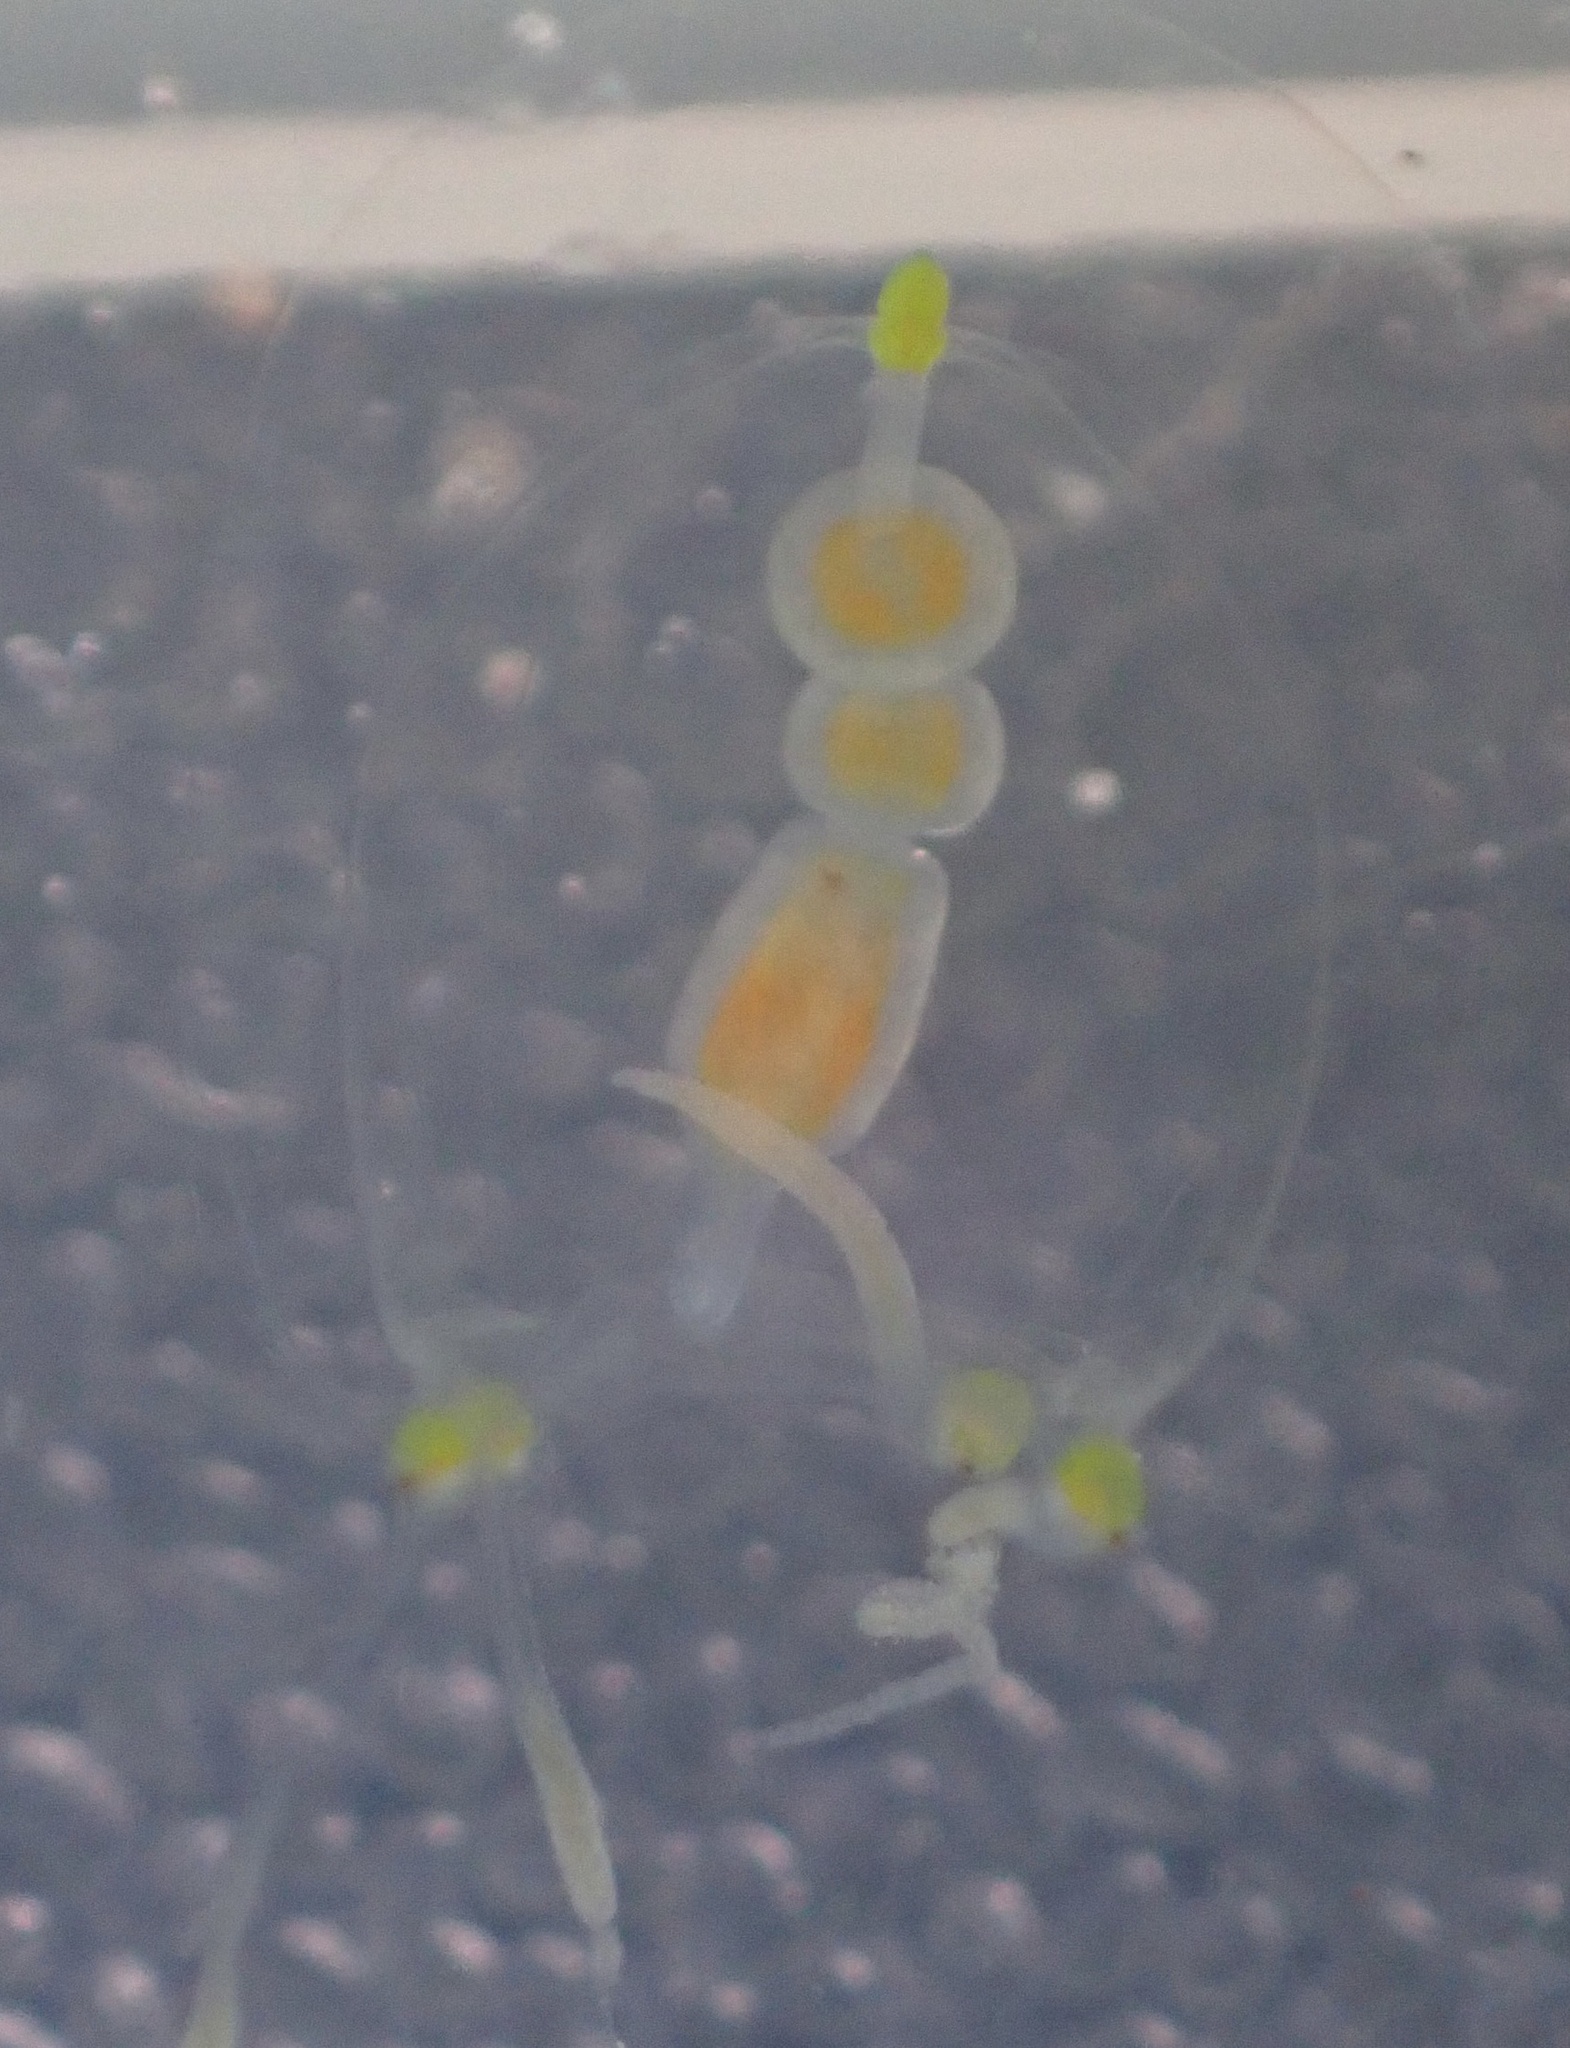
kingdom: Animalia
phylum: Cnidaria
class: Hydrozoa
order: Anthoathecata
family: Corynidae
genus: Stauridiosarsia
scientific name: Stauridiosarsia bicircella
